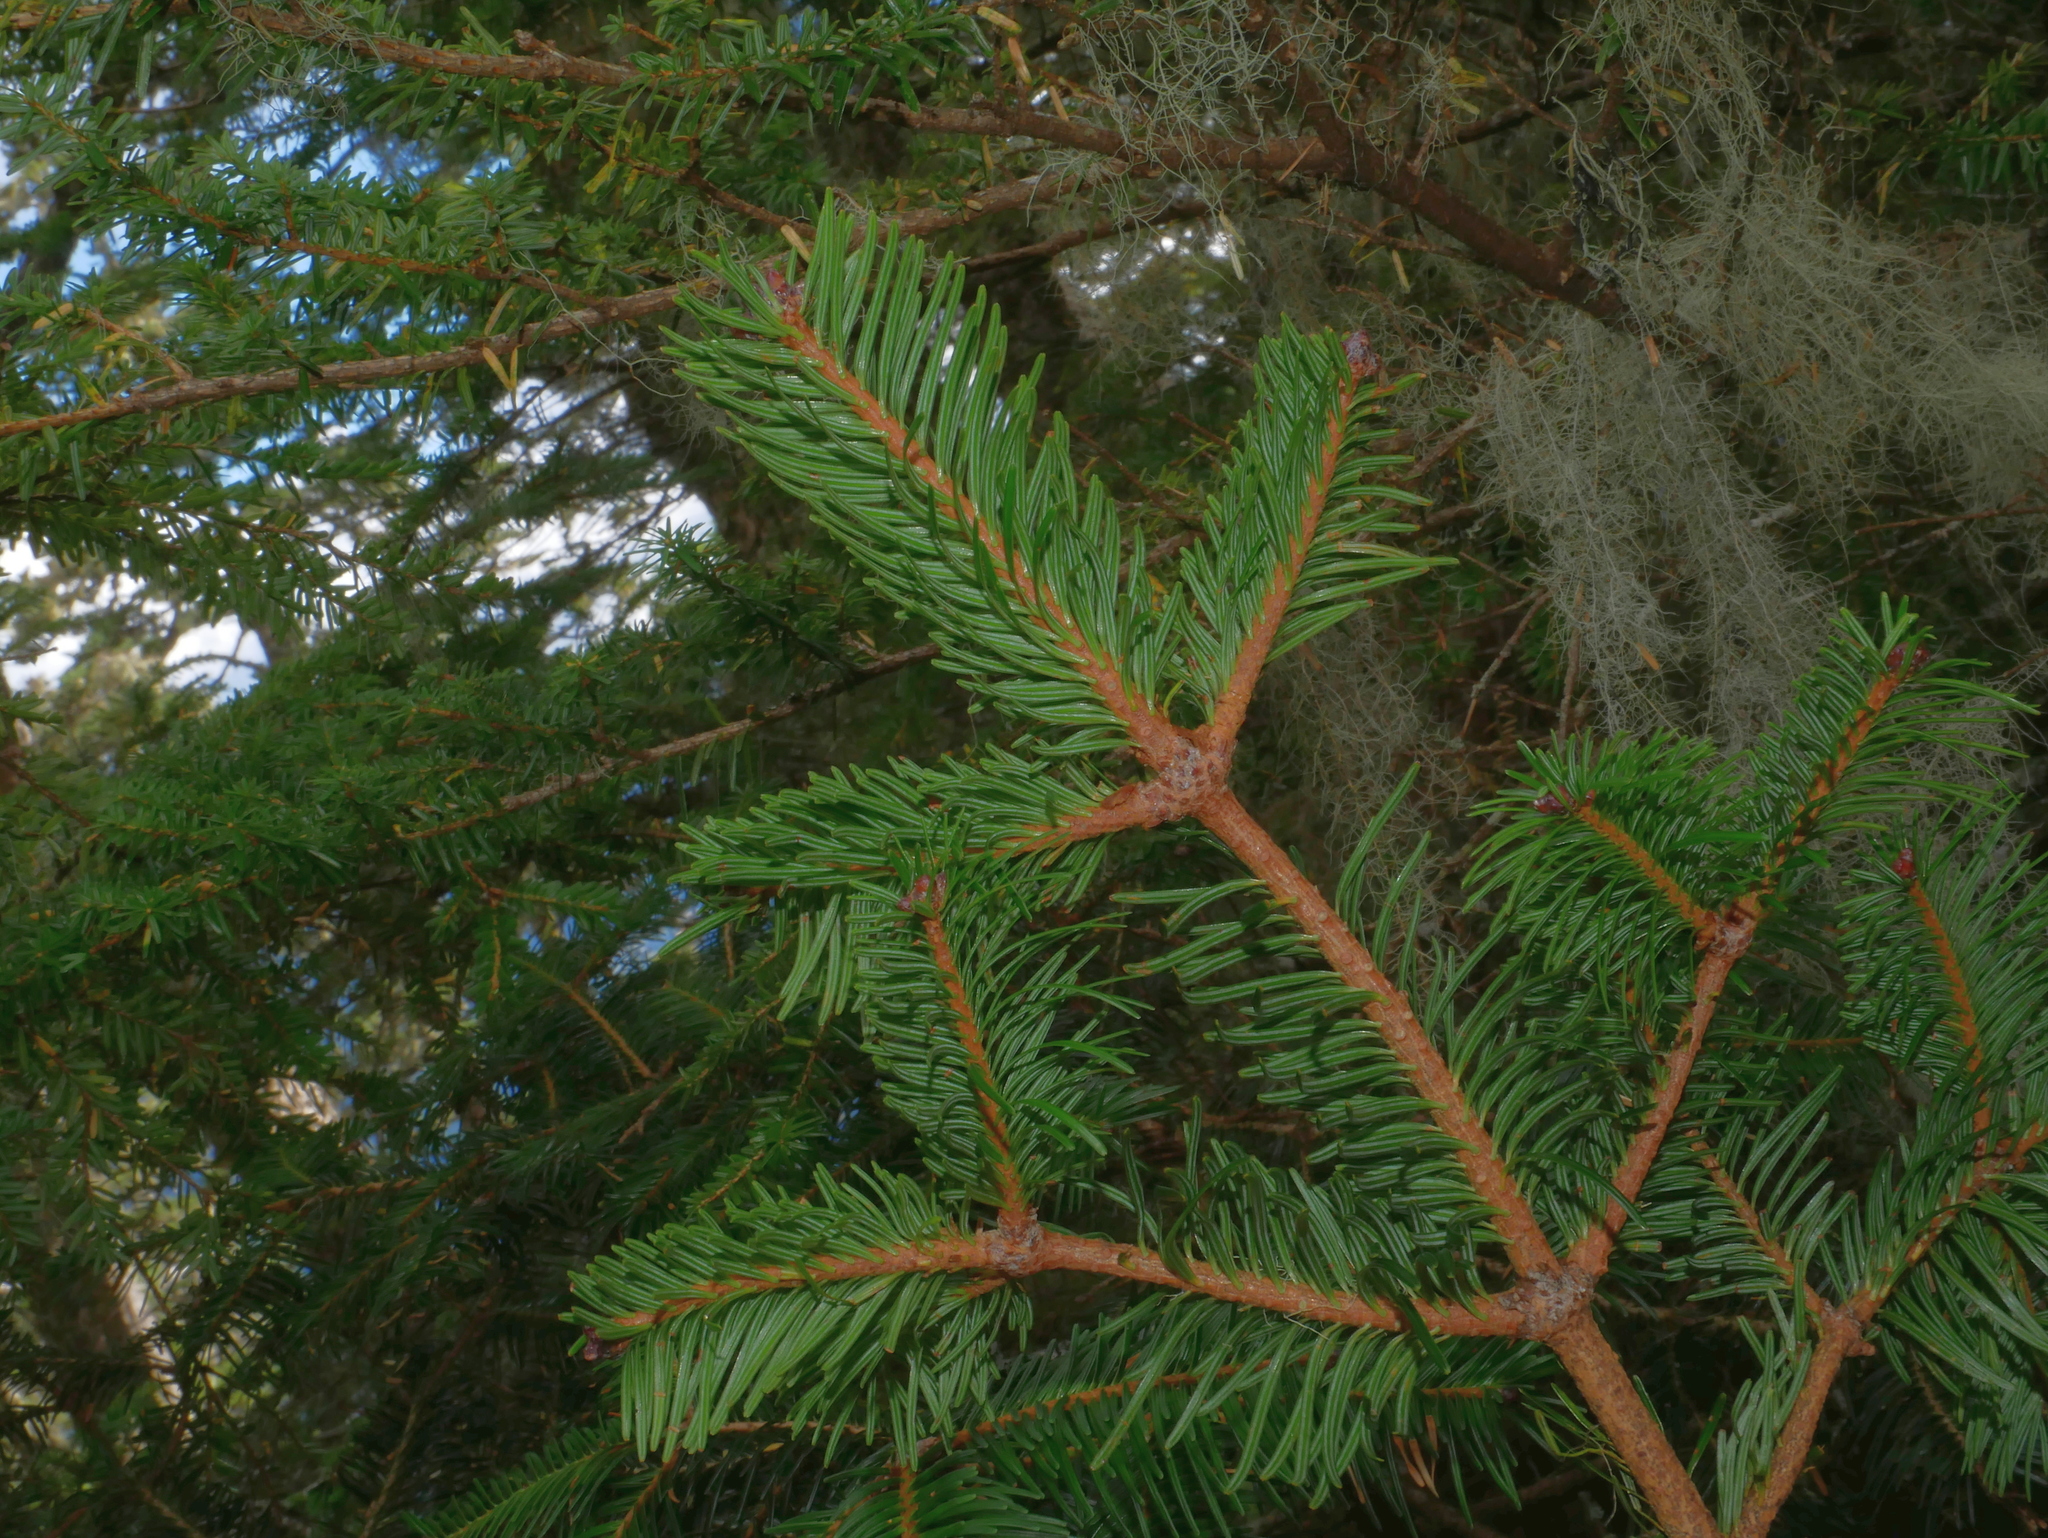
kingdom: Plantae
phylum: Tracheophyta
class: Pinopsida
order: Pinales
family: Pinaceae
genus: Abies
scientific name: Abies kawakamii
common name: Taiwan fir
